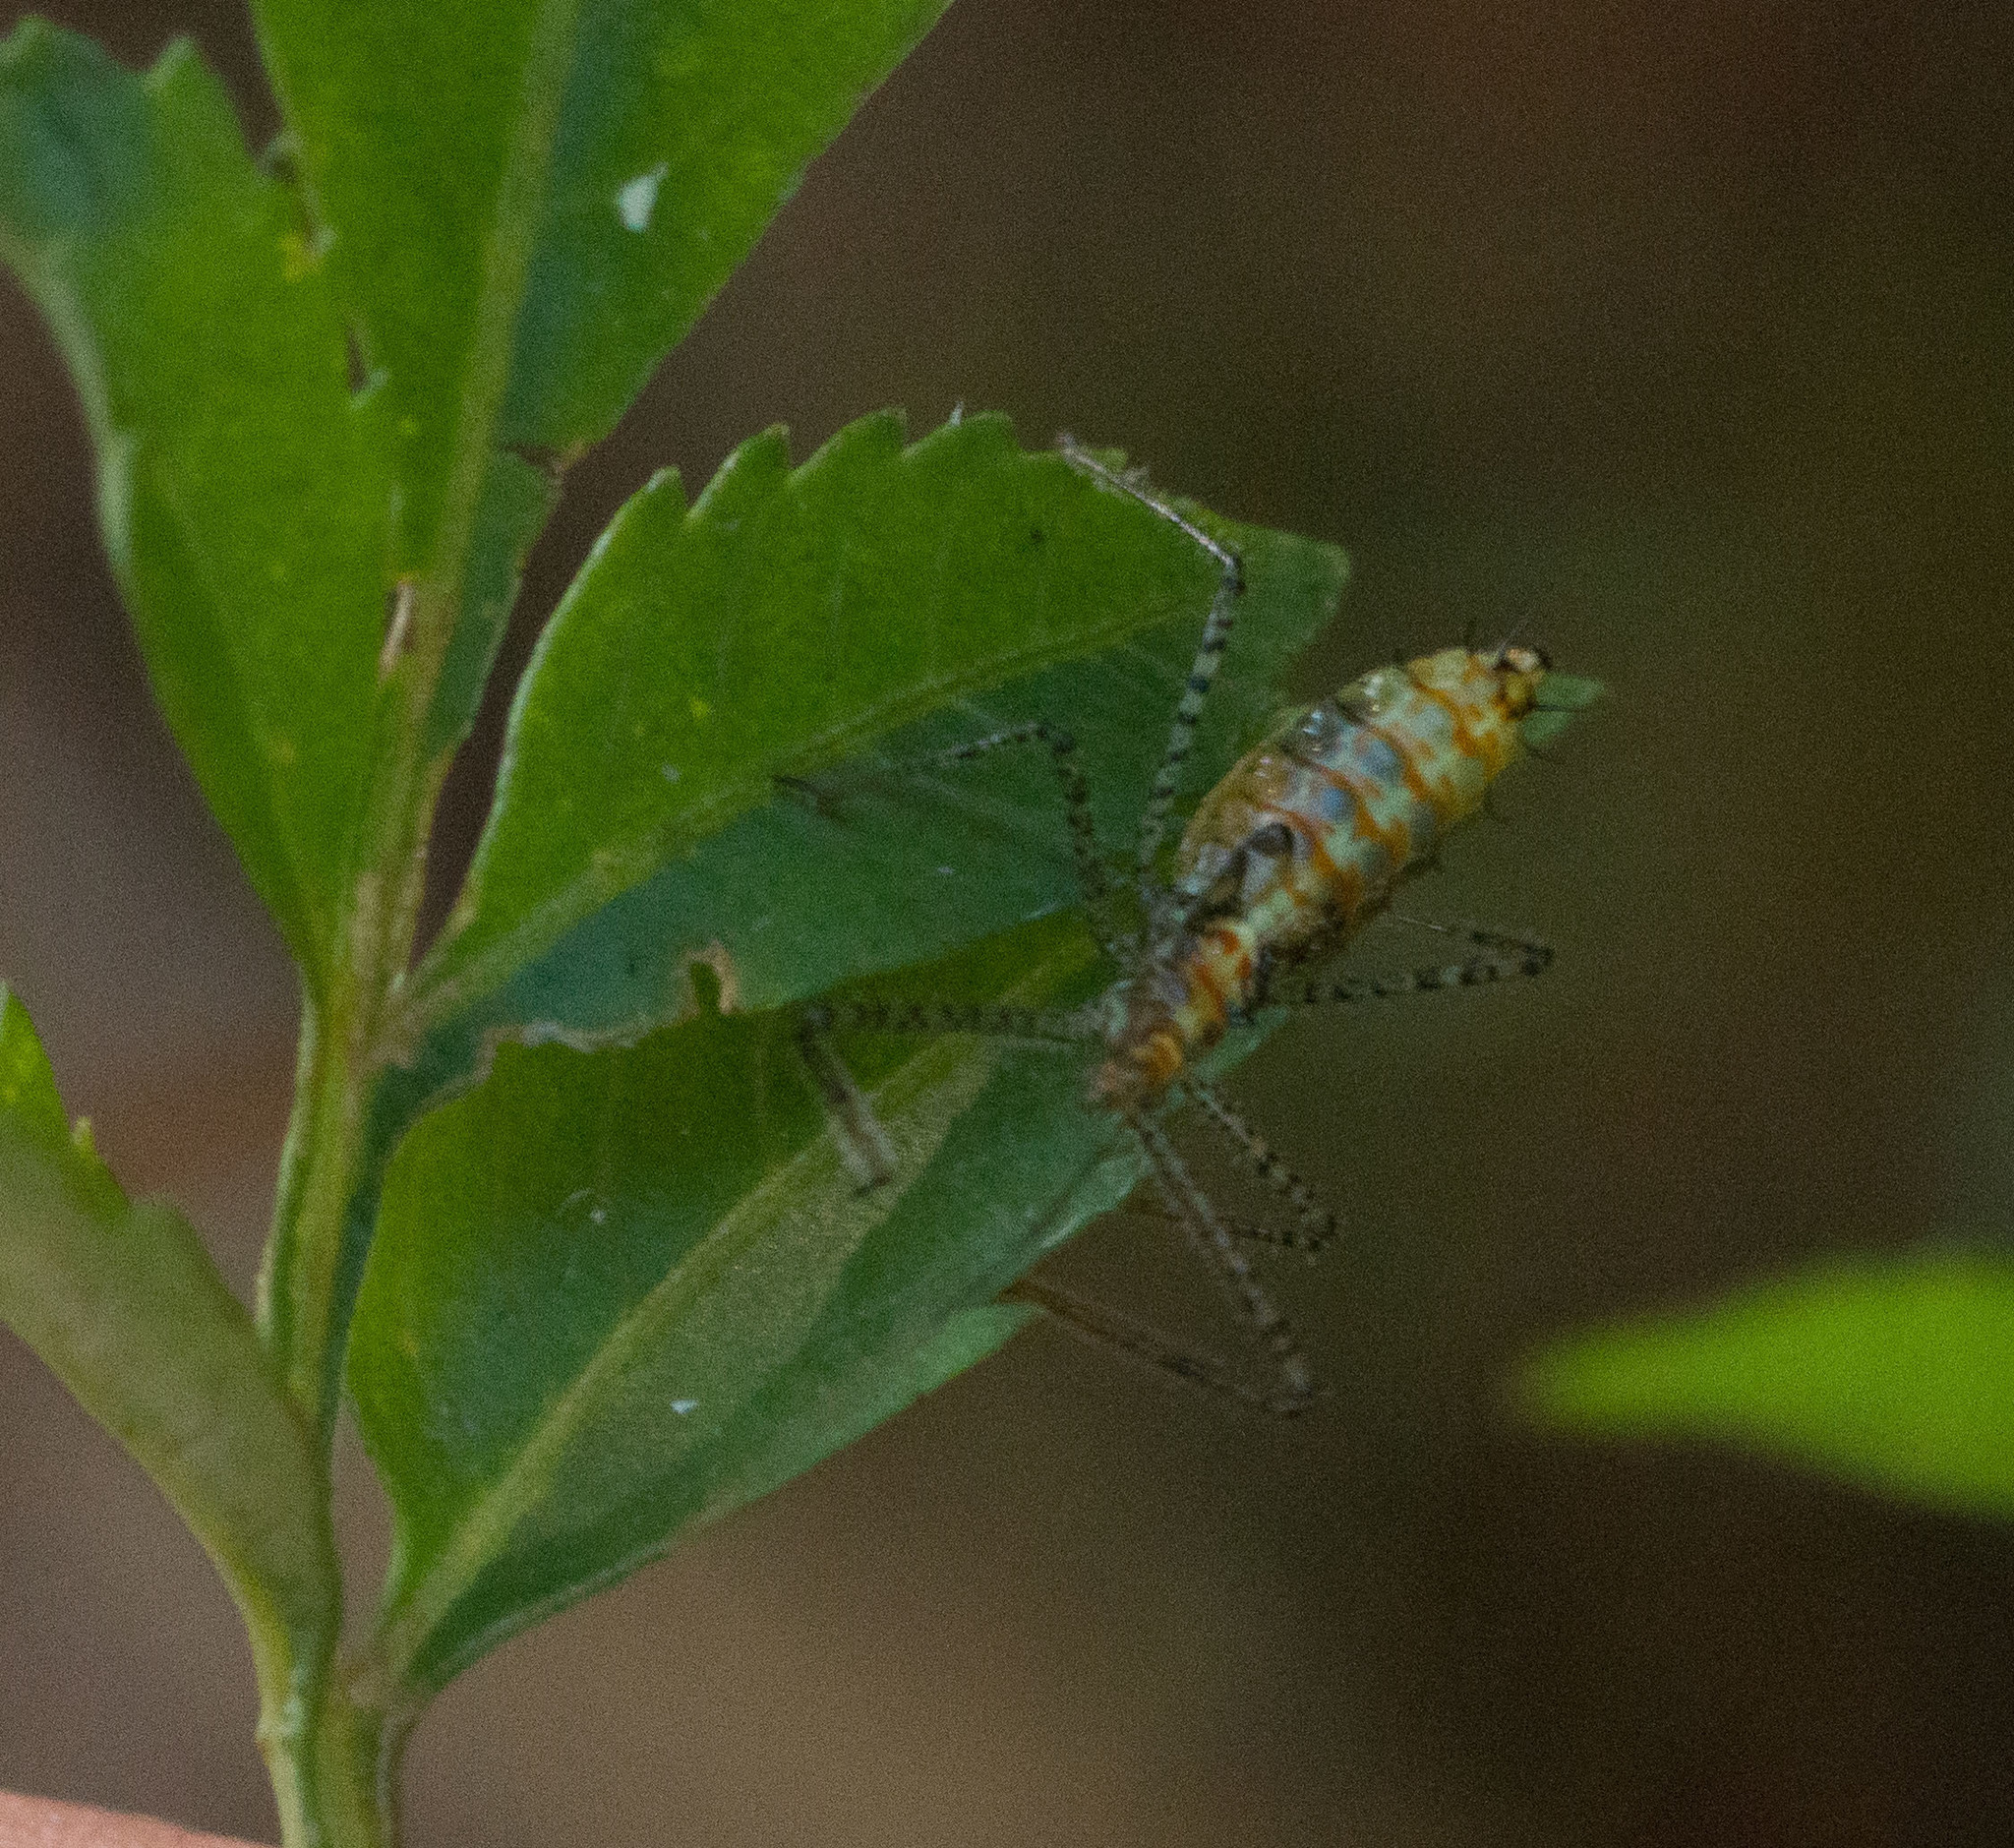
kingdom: Animalia
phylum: Arthropoda
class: Insecta
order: Hemiptera
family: Reduviidae
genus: Zelus
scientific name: Zelus renardii
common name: Assassin bug
